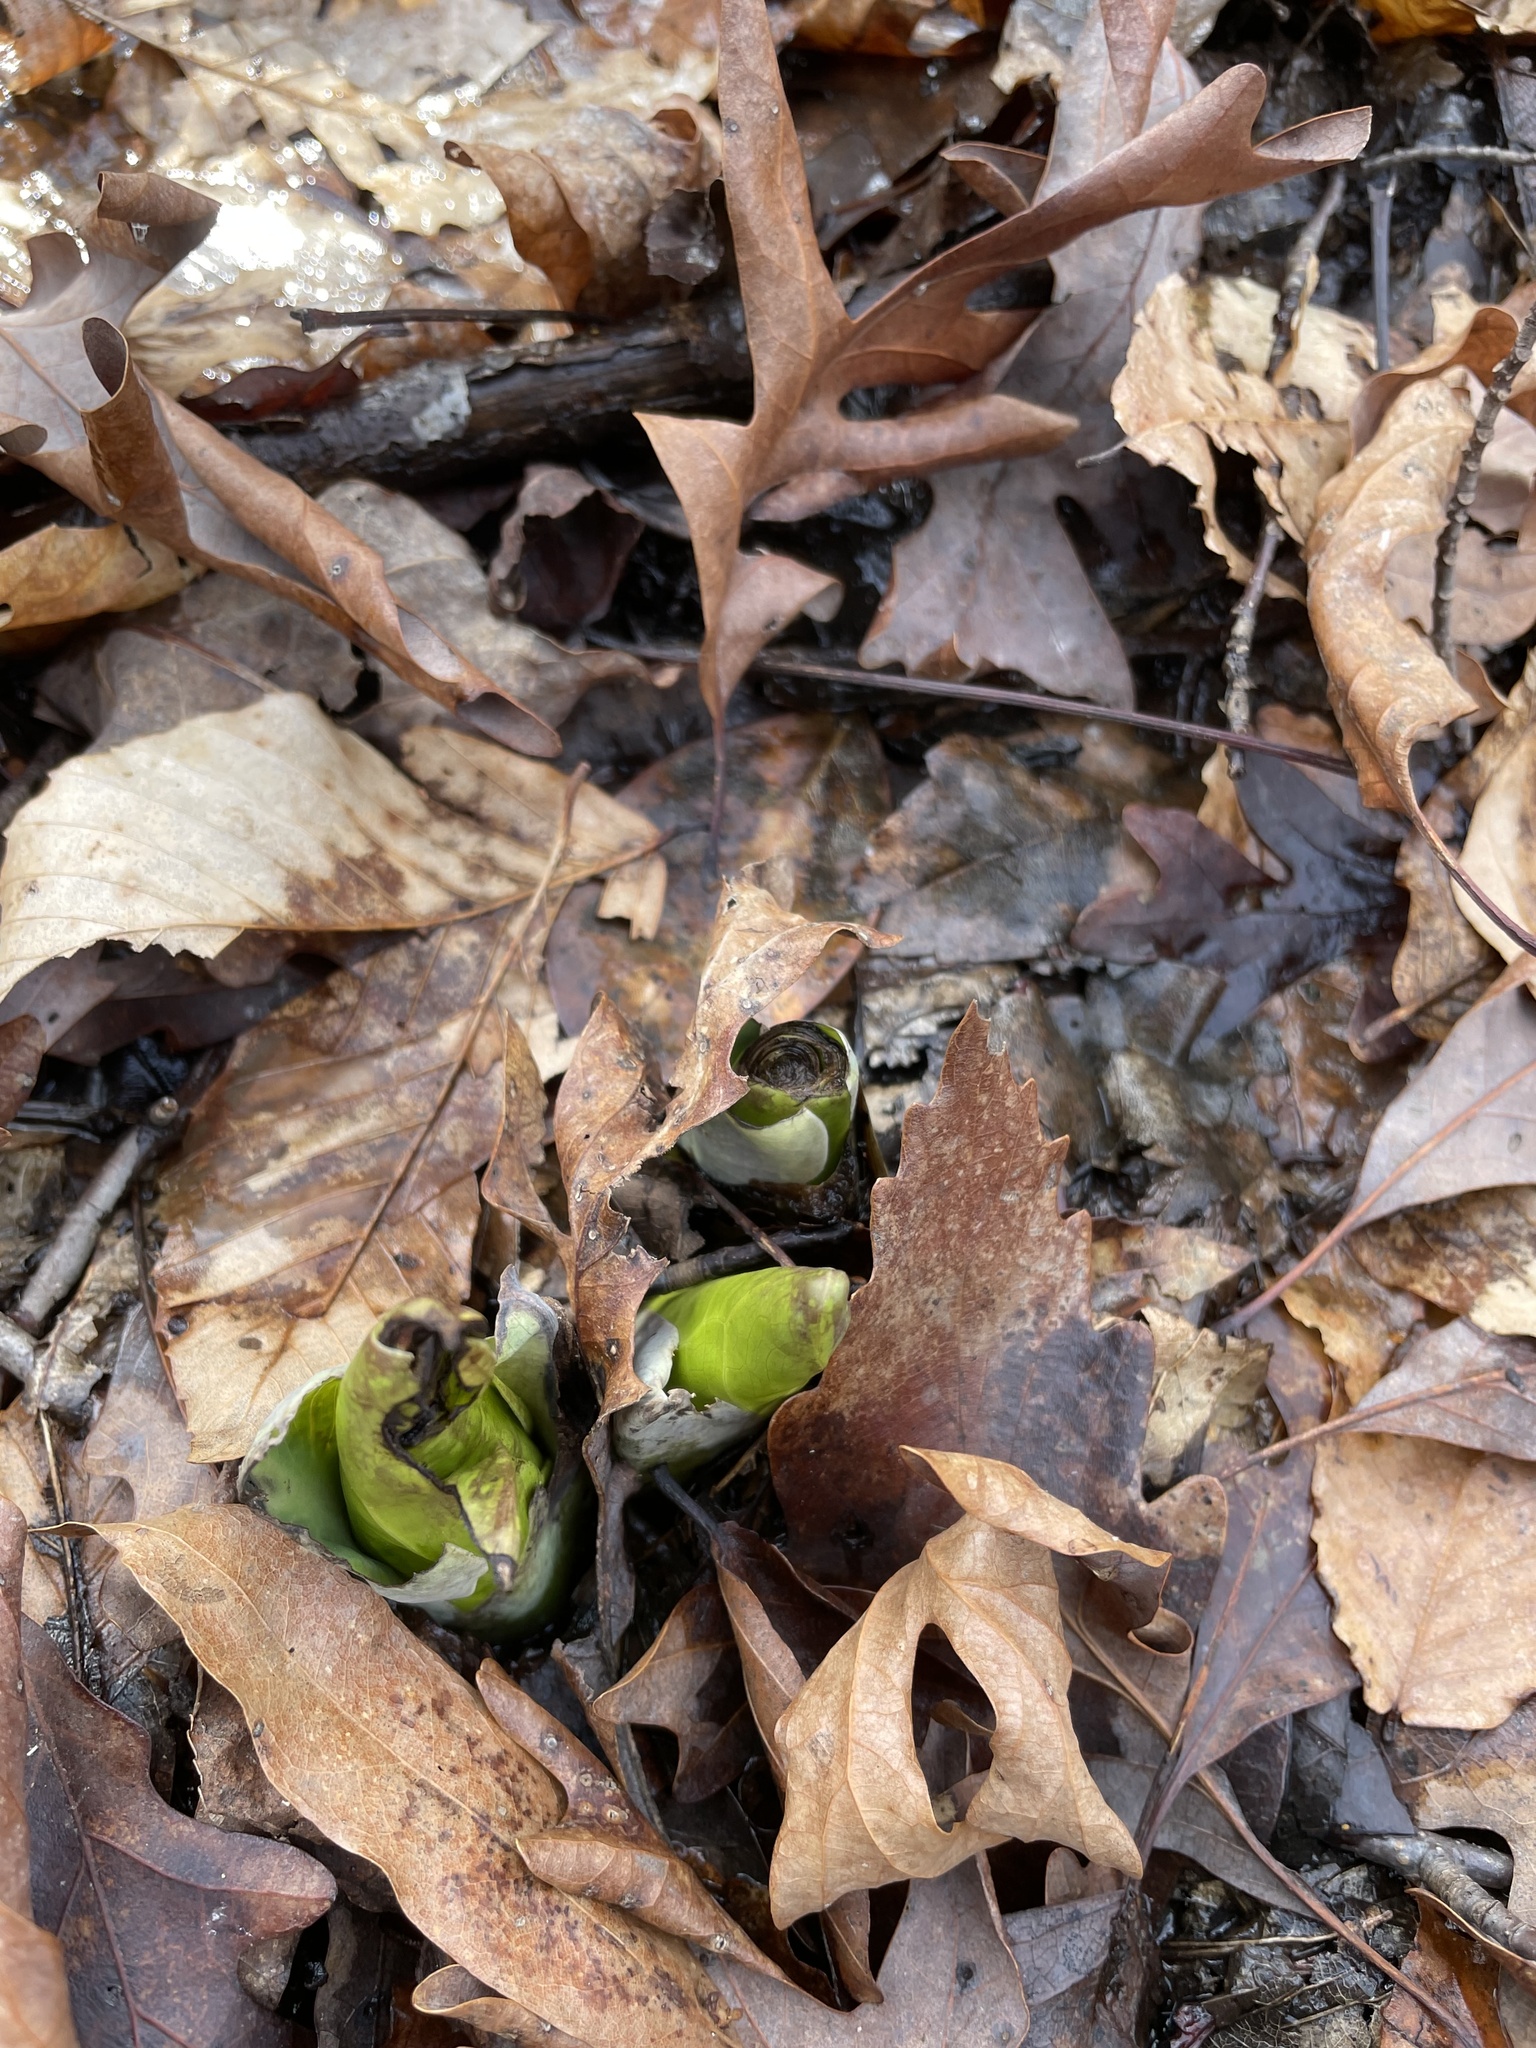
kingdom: Plantae
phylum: Tracheophyta
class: Liliopsida
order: Alismatales
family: Araceae
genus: Symplocarpus
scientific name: Symplocarpus foetidus
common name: Eastern skunk cabbage
